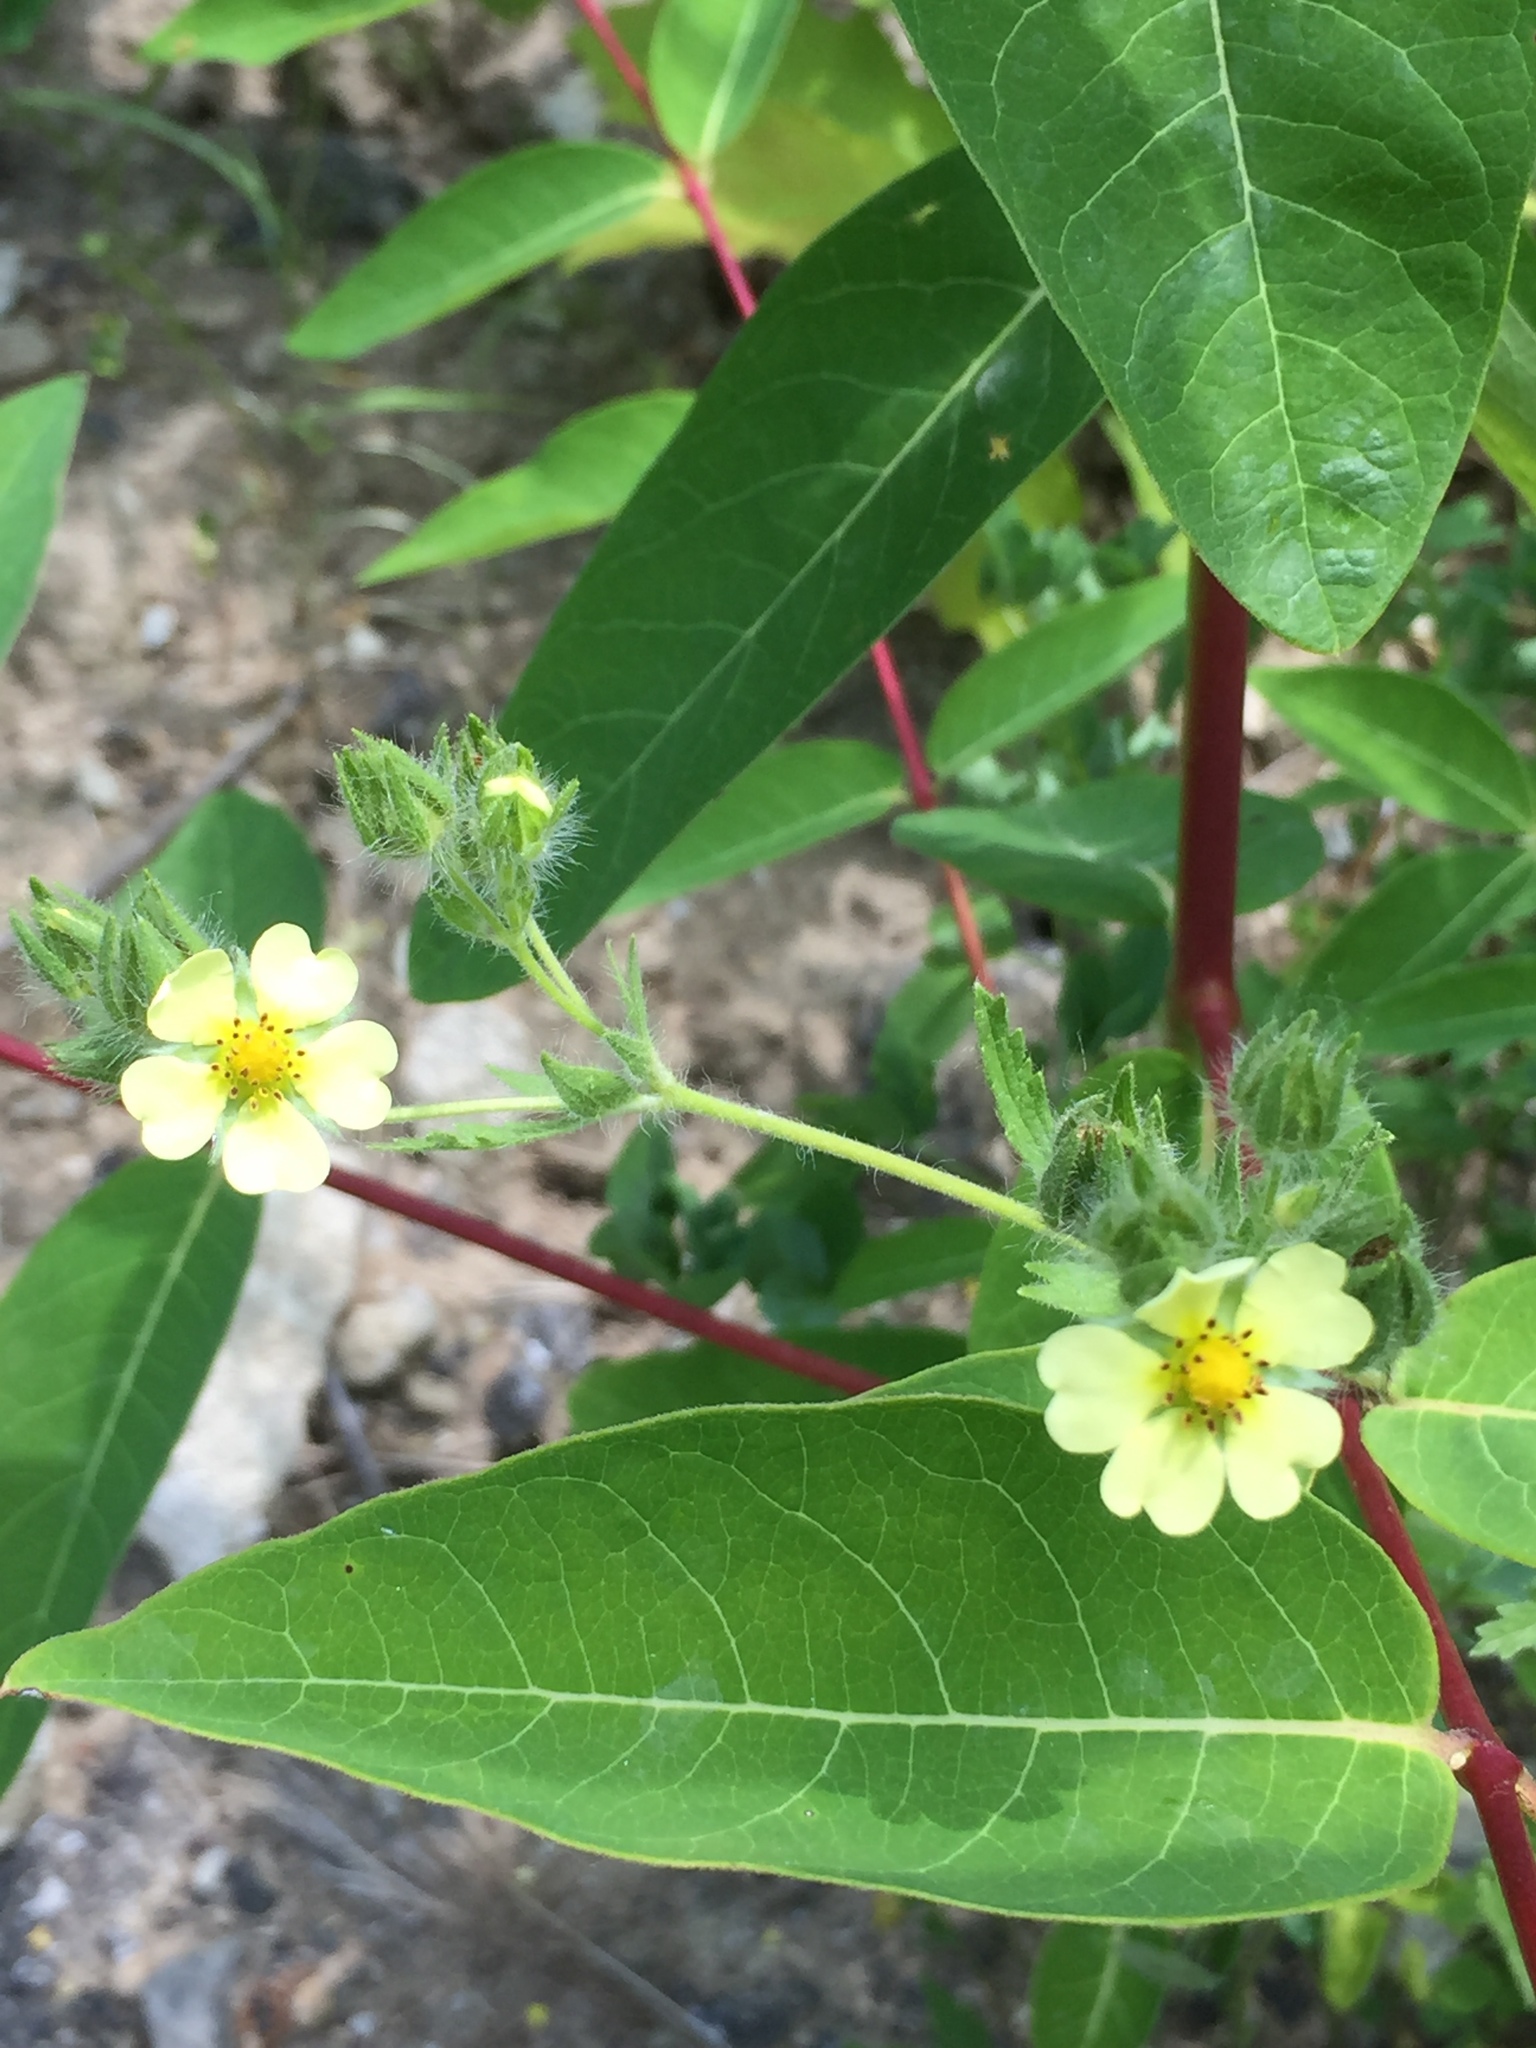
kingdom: Plantae
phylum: Tracheophyta
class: Magnoliopsida
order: Rosales
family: Rosaceae
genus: Potentilla
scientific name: Potentilla recta
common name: Sulphur cinquefoil
